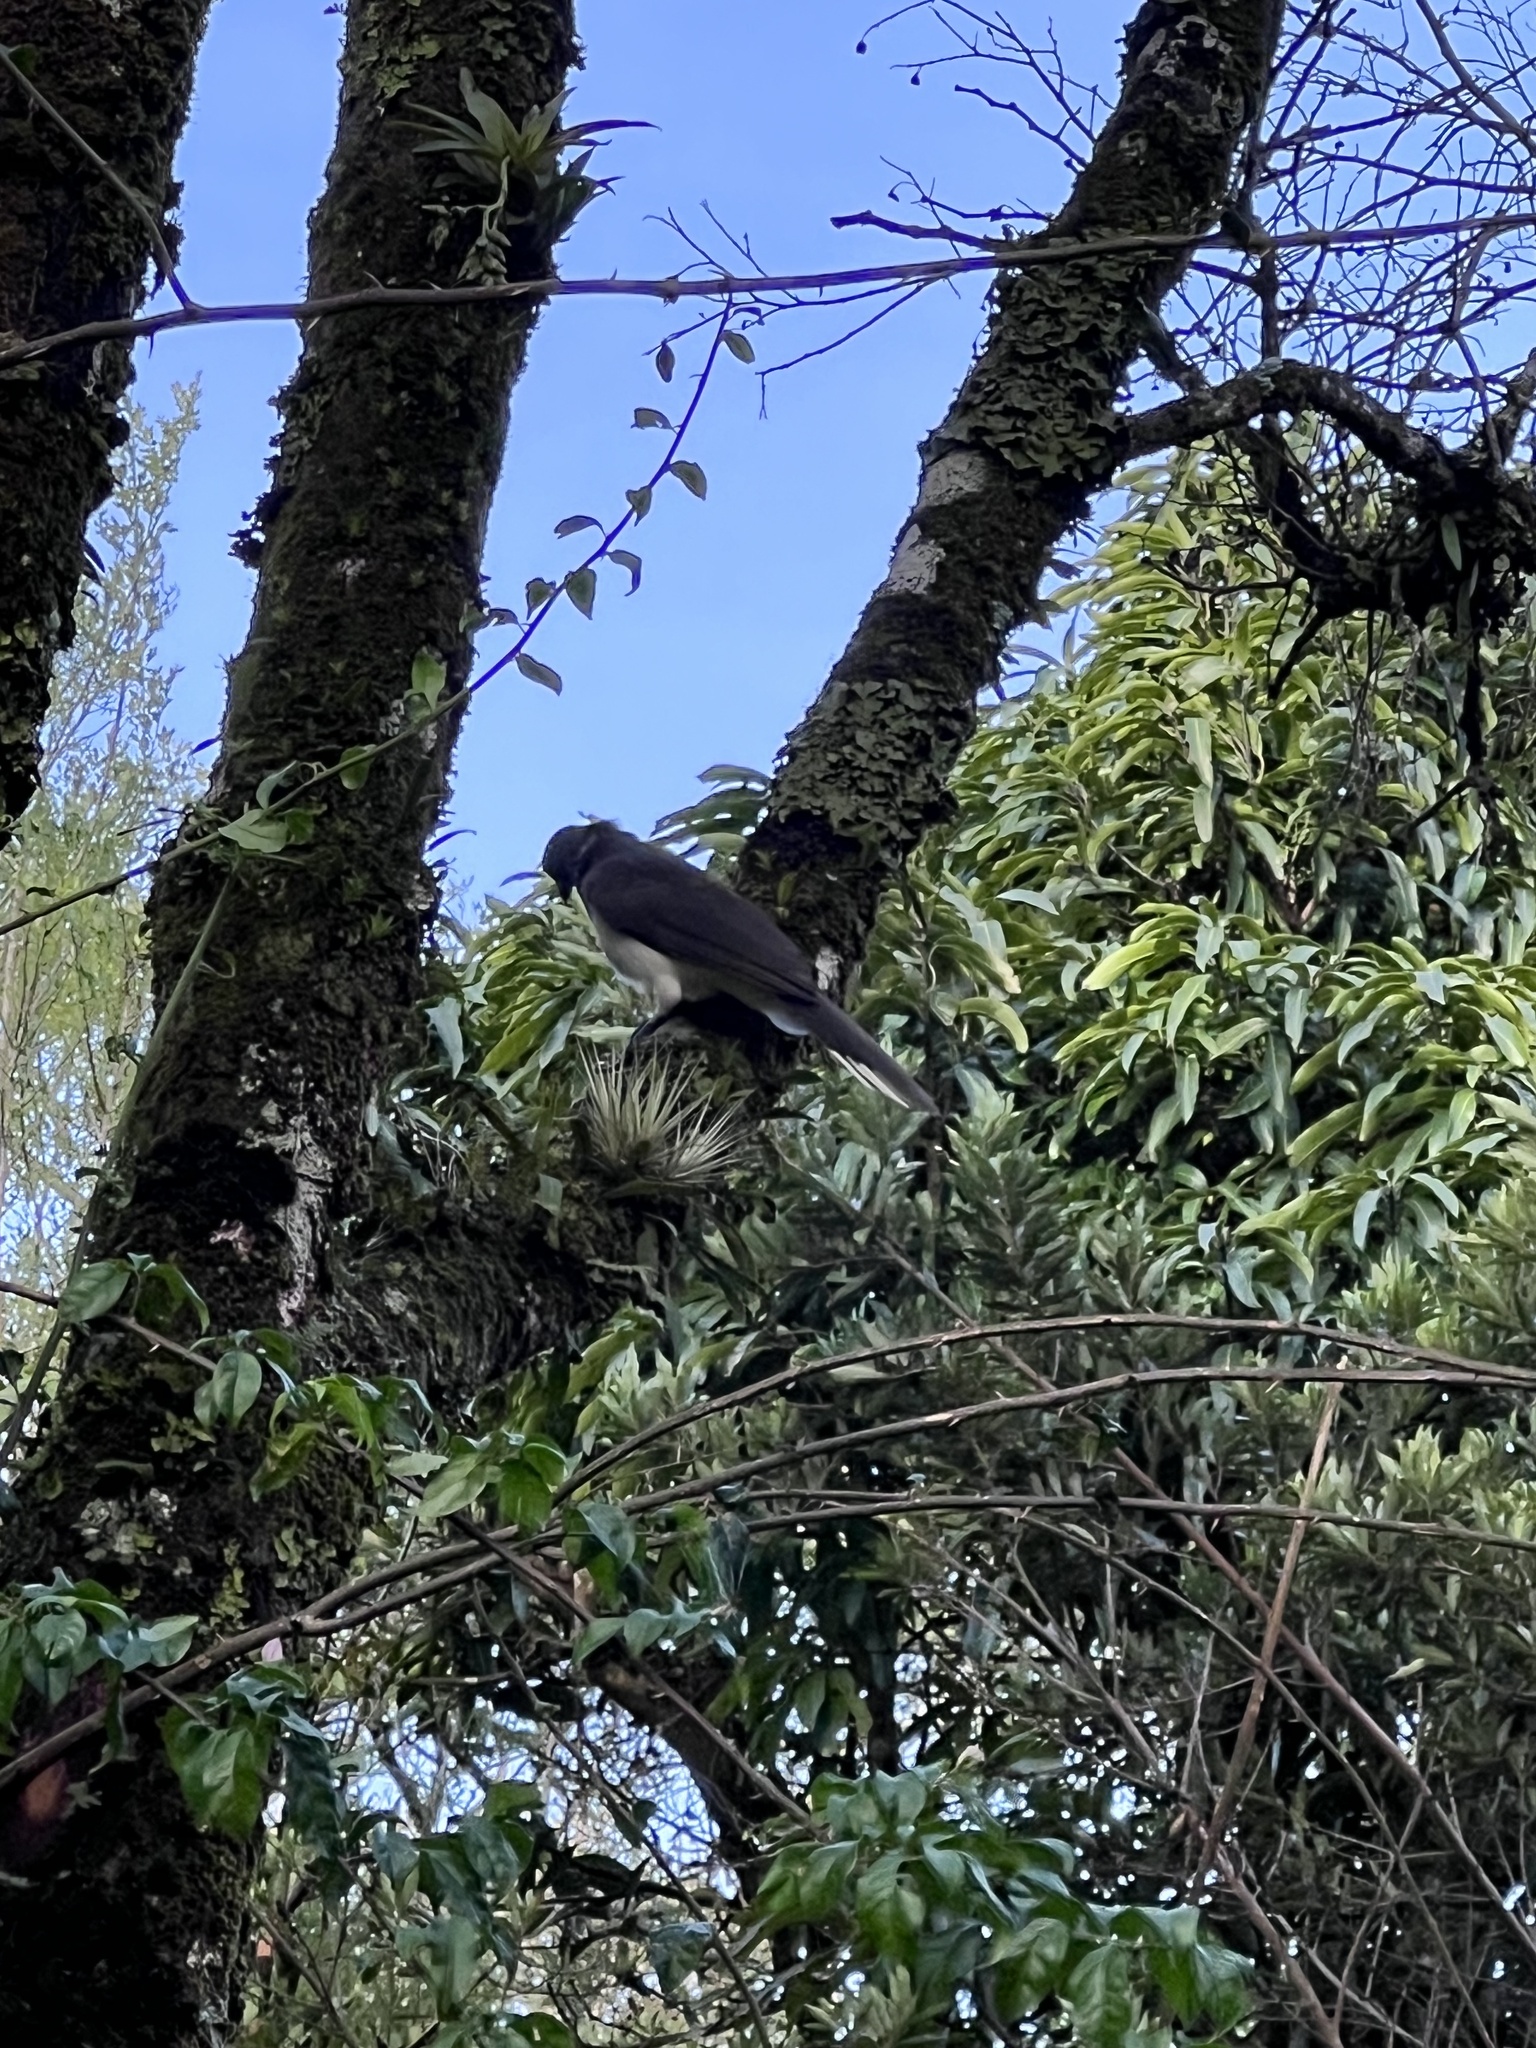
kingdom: Animalia
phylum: Chordata
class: Aves
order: Passeriformes
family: Corvidae
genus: Psilorhinus
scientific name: Psilorhinus morio
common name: Brown jay
